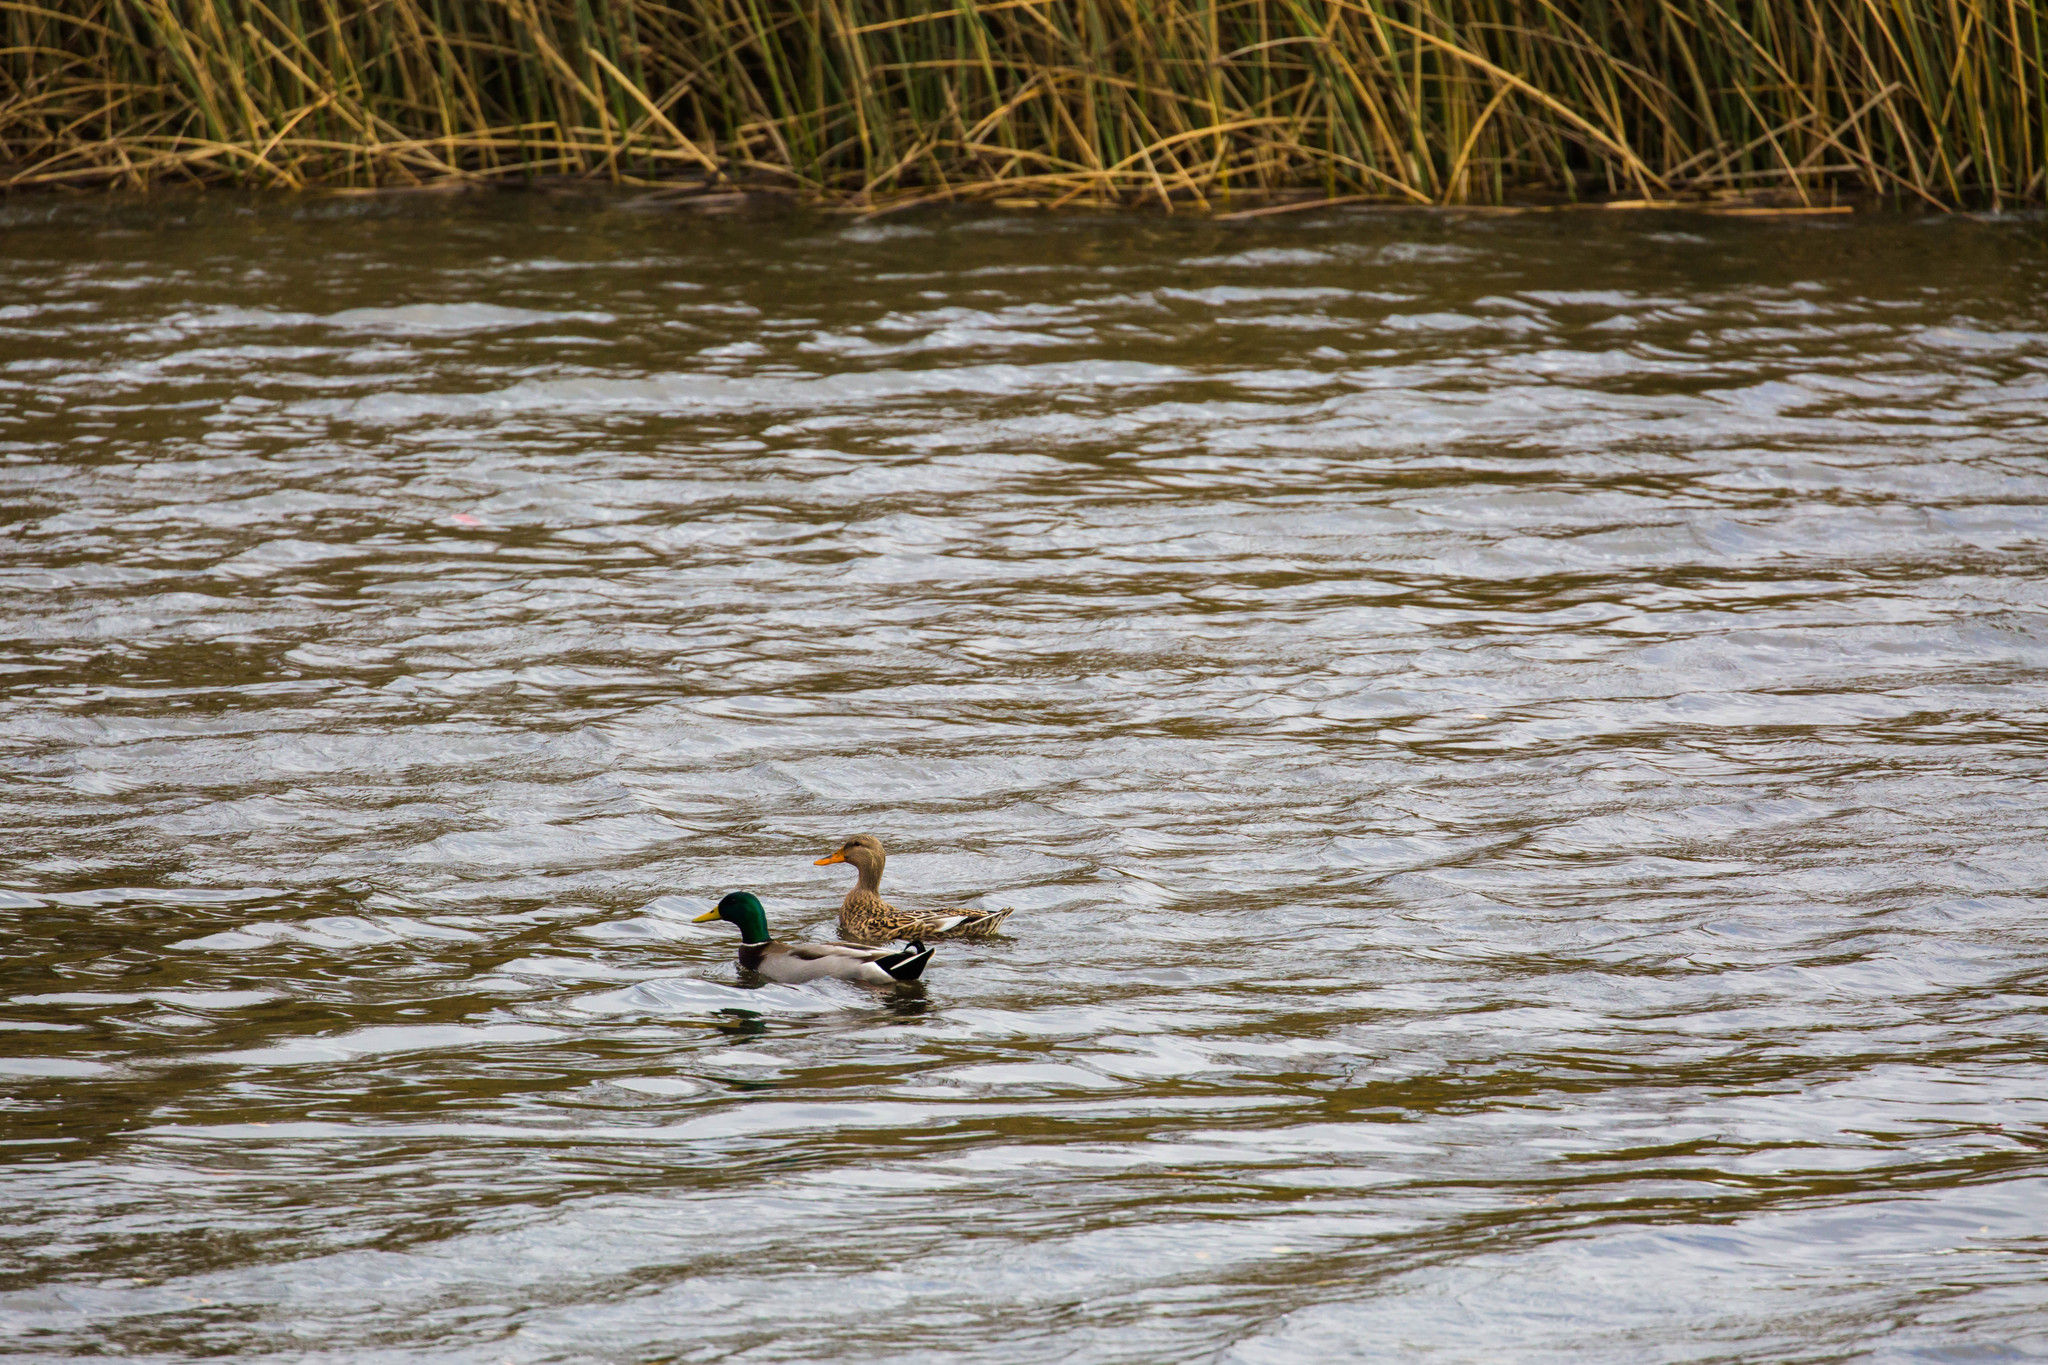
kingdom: Animalia
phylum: Chordata
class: Aves
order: Anseriformes
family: Anatidae
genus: Anas
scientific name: Anas platyrhynchos
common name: Mallard
